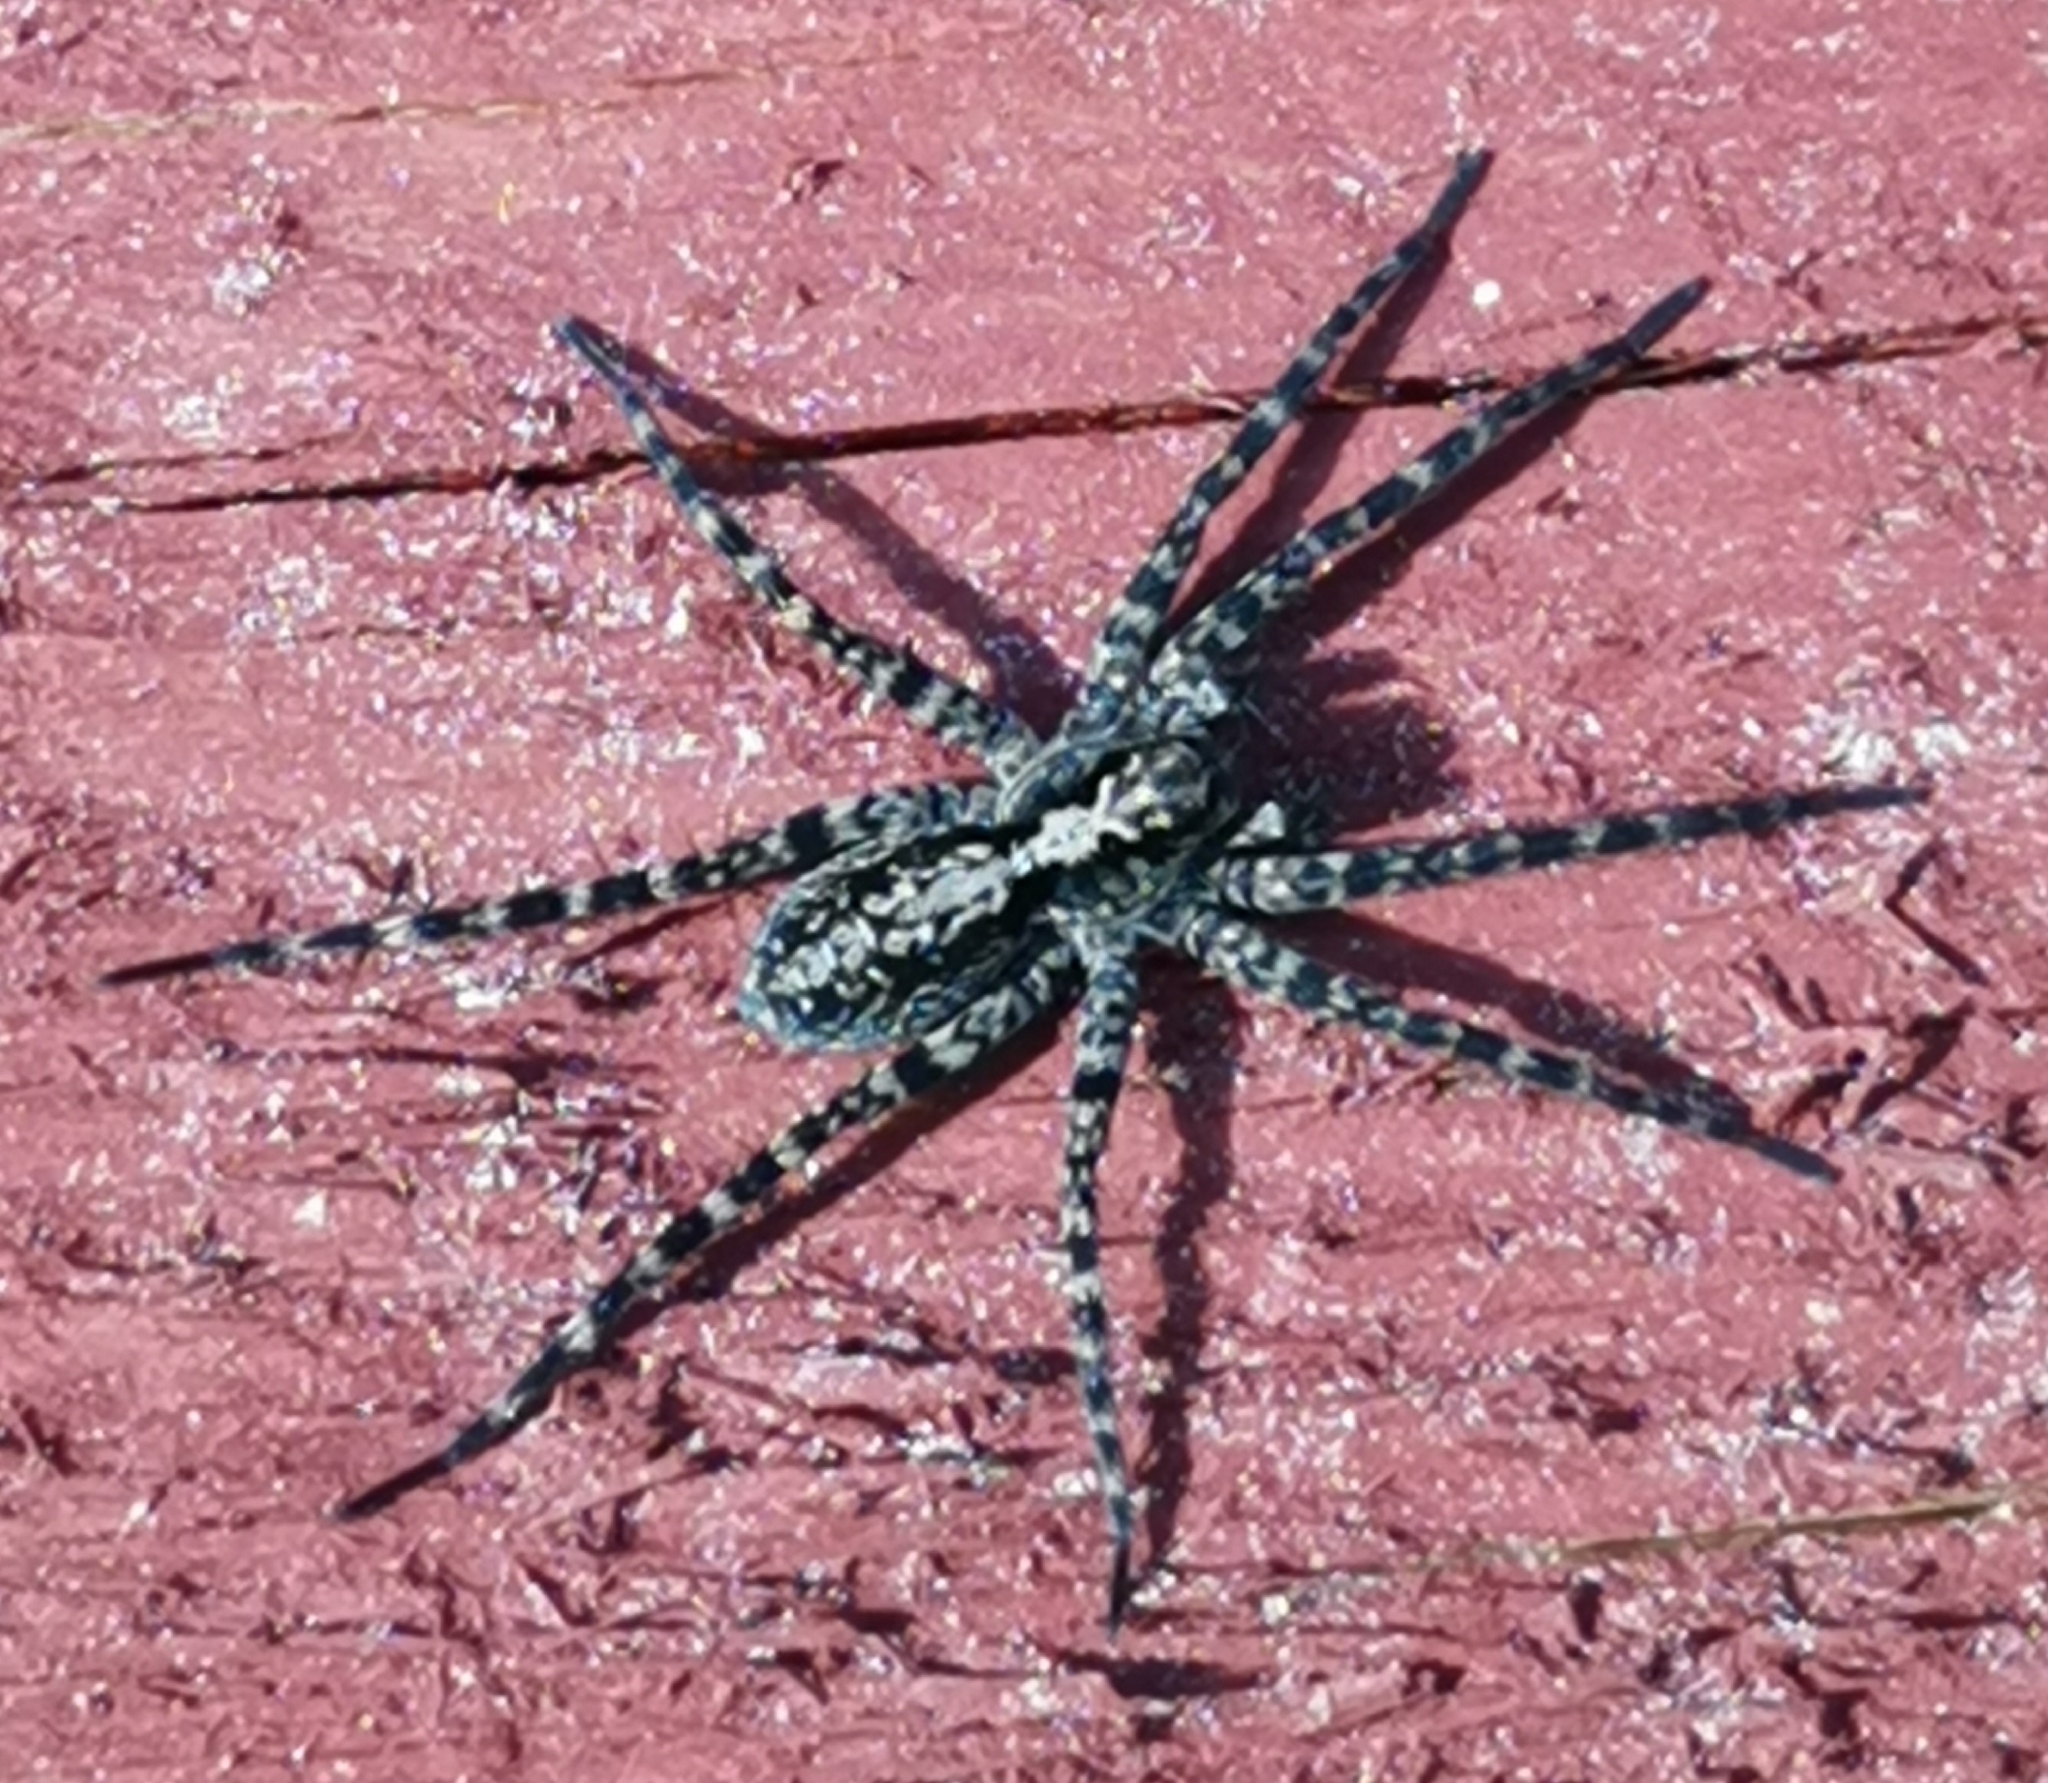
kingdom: Animalia
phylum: Arthropoda
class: Arachnida
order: Araneae
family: Lycosidae
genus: Acantholycosa
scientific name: Acantholycosa lignaria
